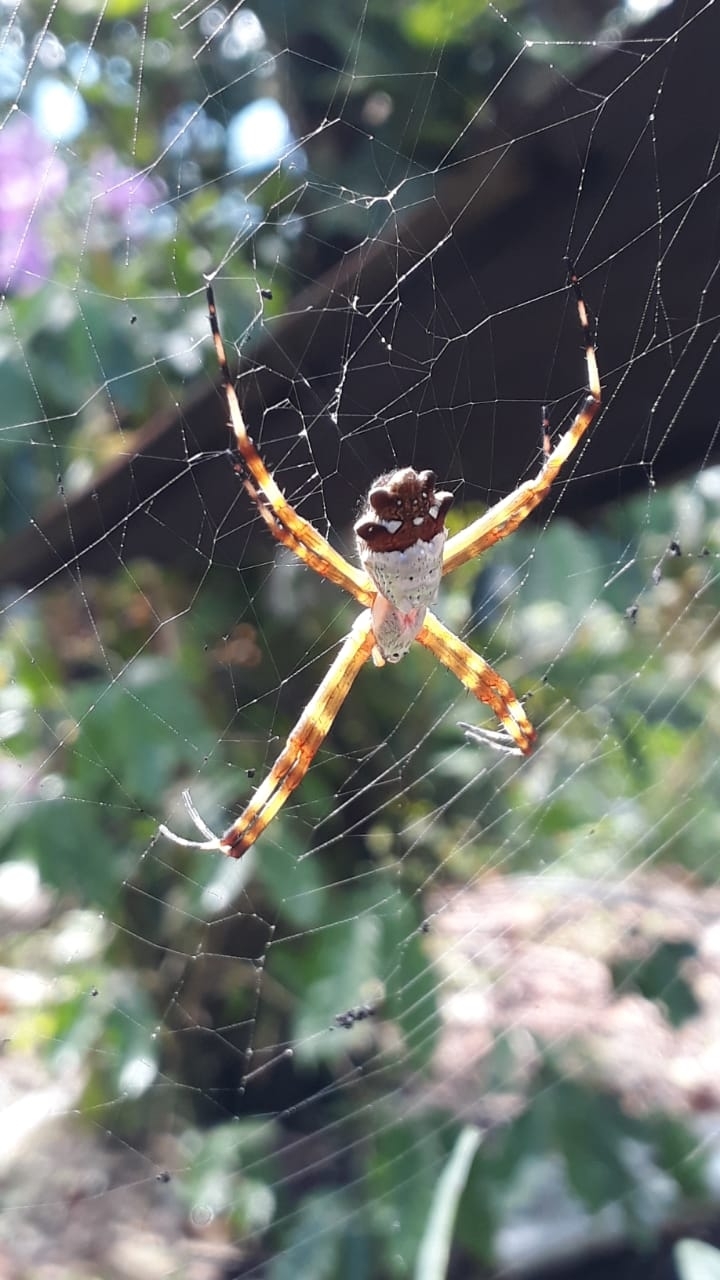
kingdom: Animalia
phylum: Arthropoda
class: Arachnida
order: Araneae
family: Araneidae
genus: Argiope
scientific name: Argiope argentata
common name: Orb weavers
